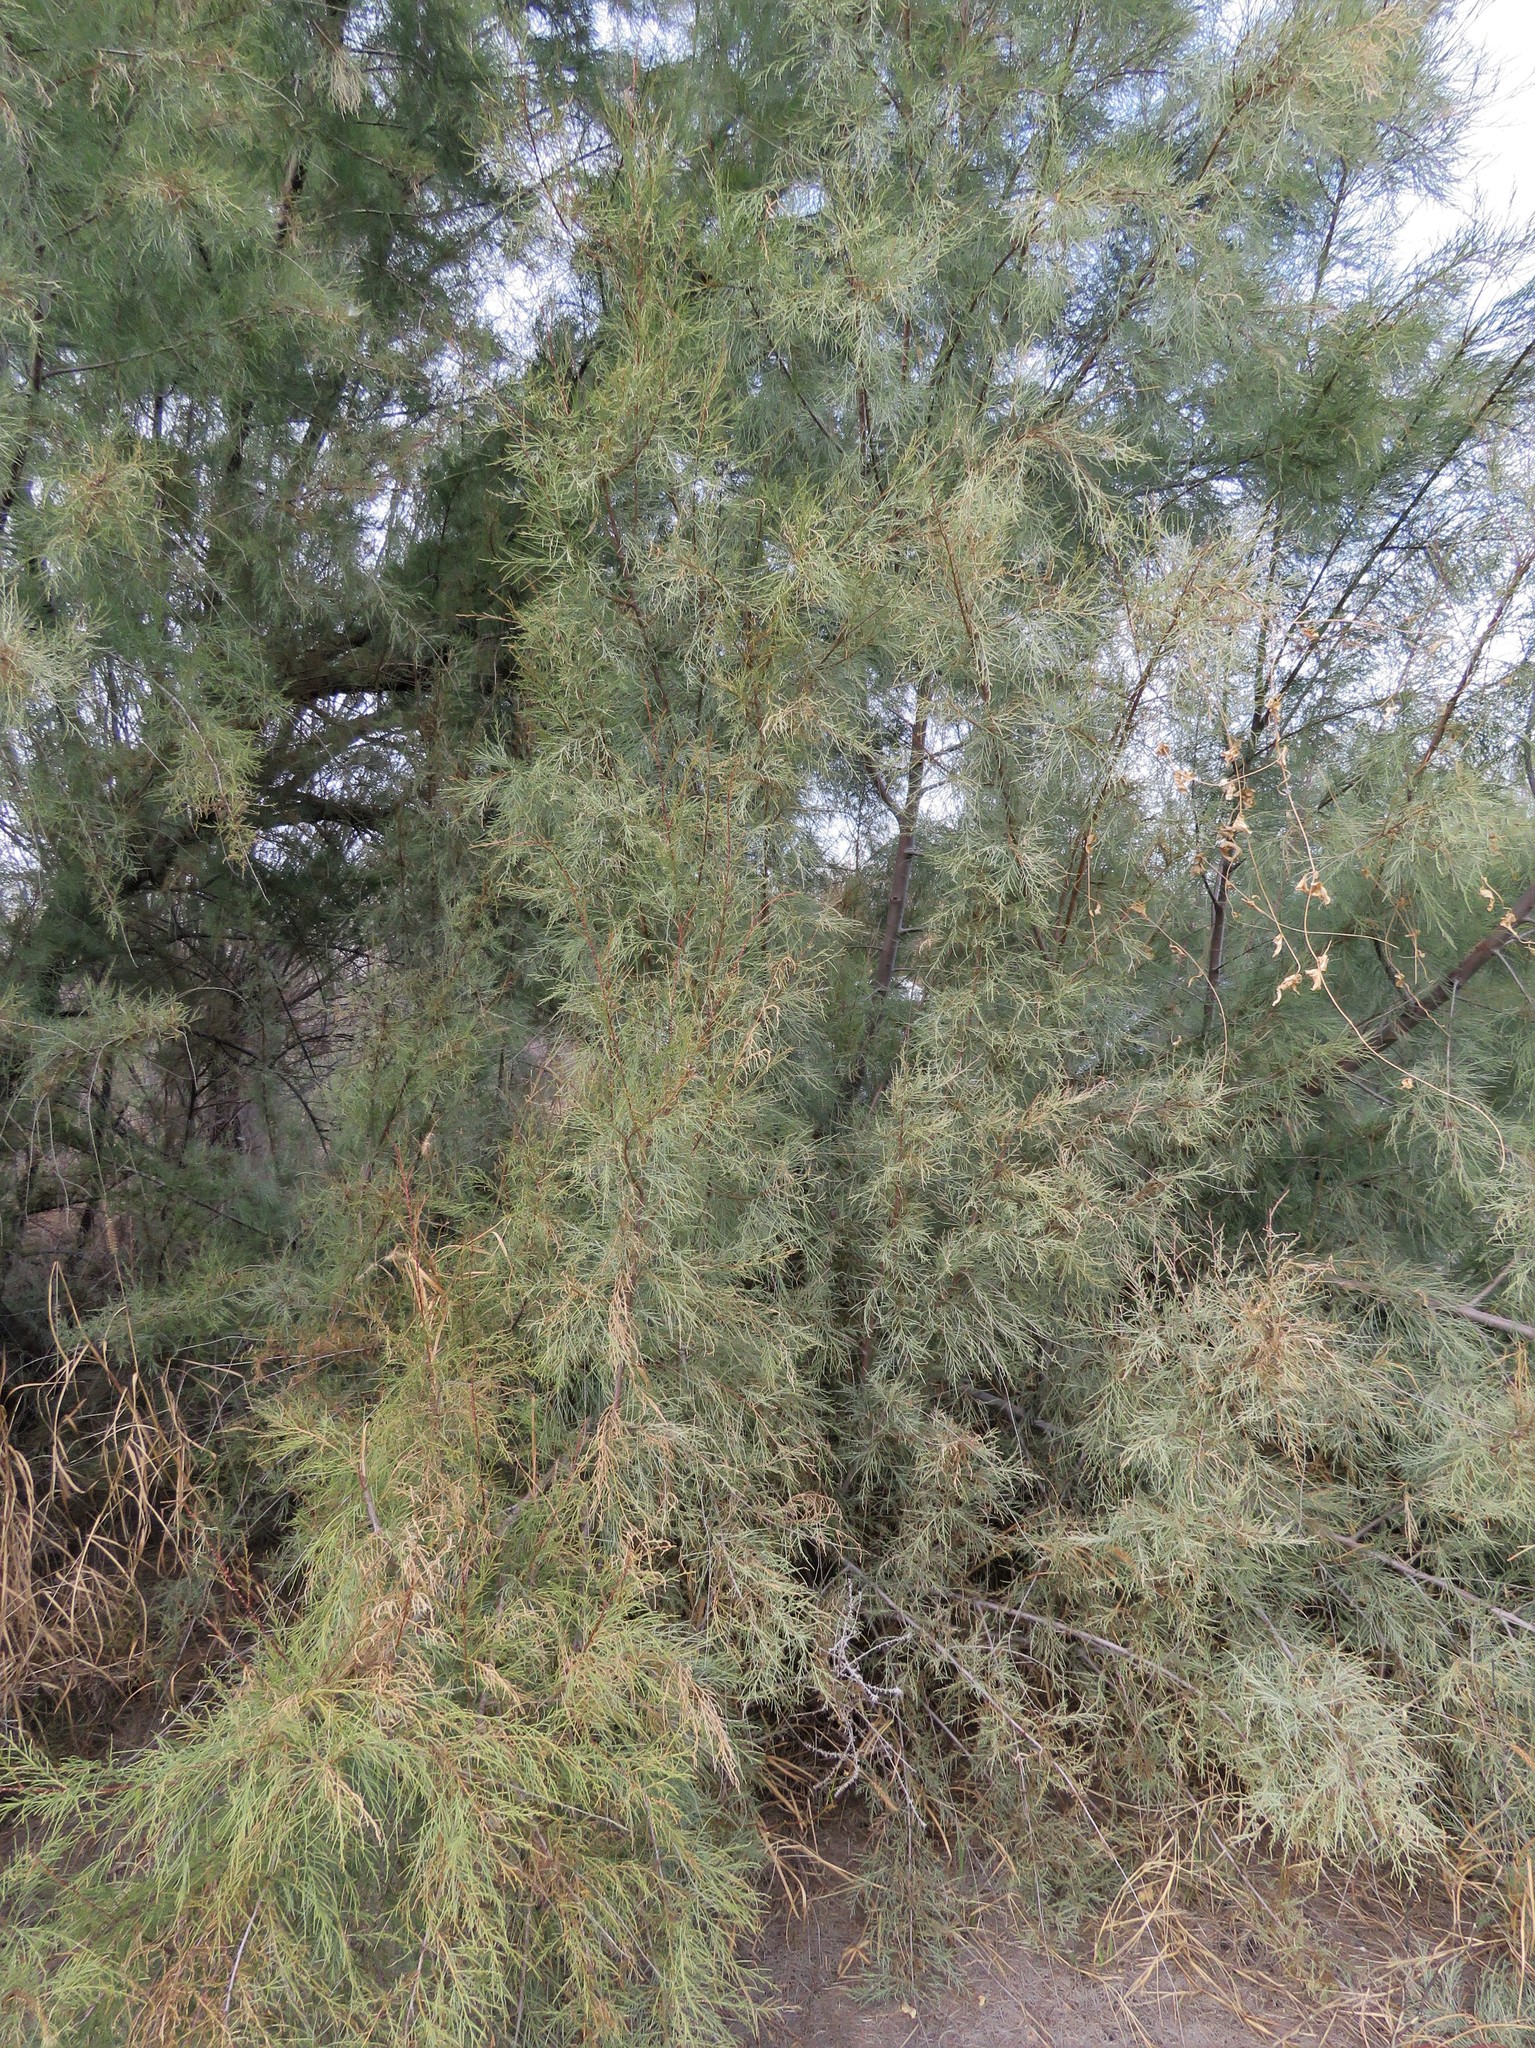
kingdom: Plantae
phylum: Tracheophyta
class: Magnoliopsida
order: Caryophyllales
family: Tamaricaceae
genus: Tamarix
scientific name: Tamarix aphylla
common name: Athel tamarisk
